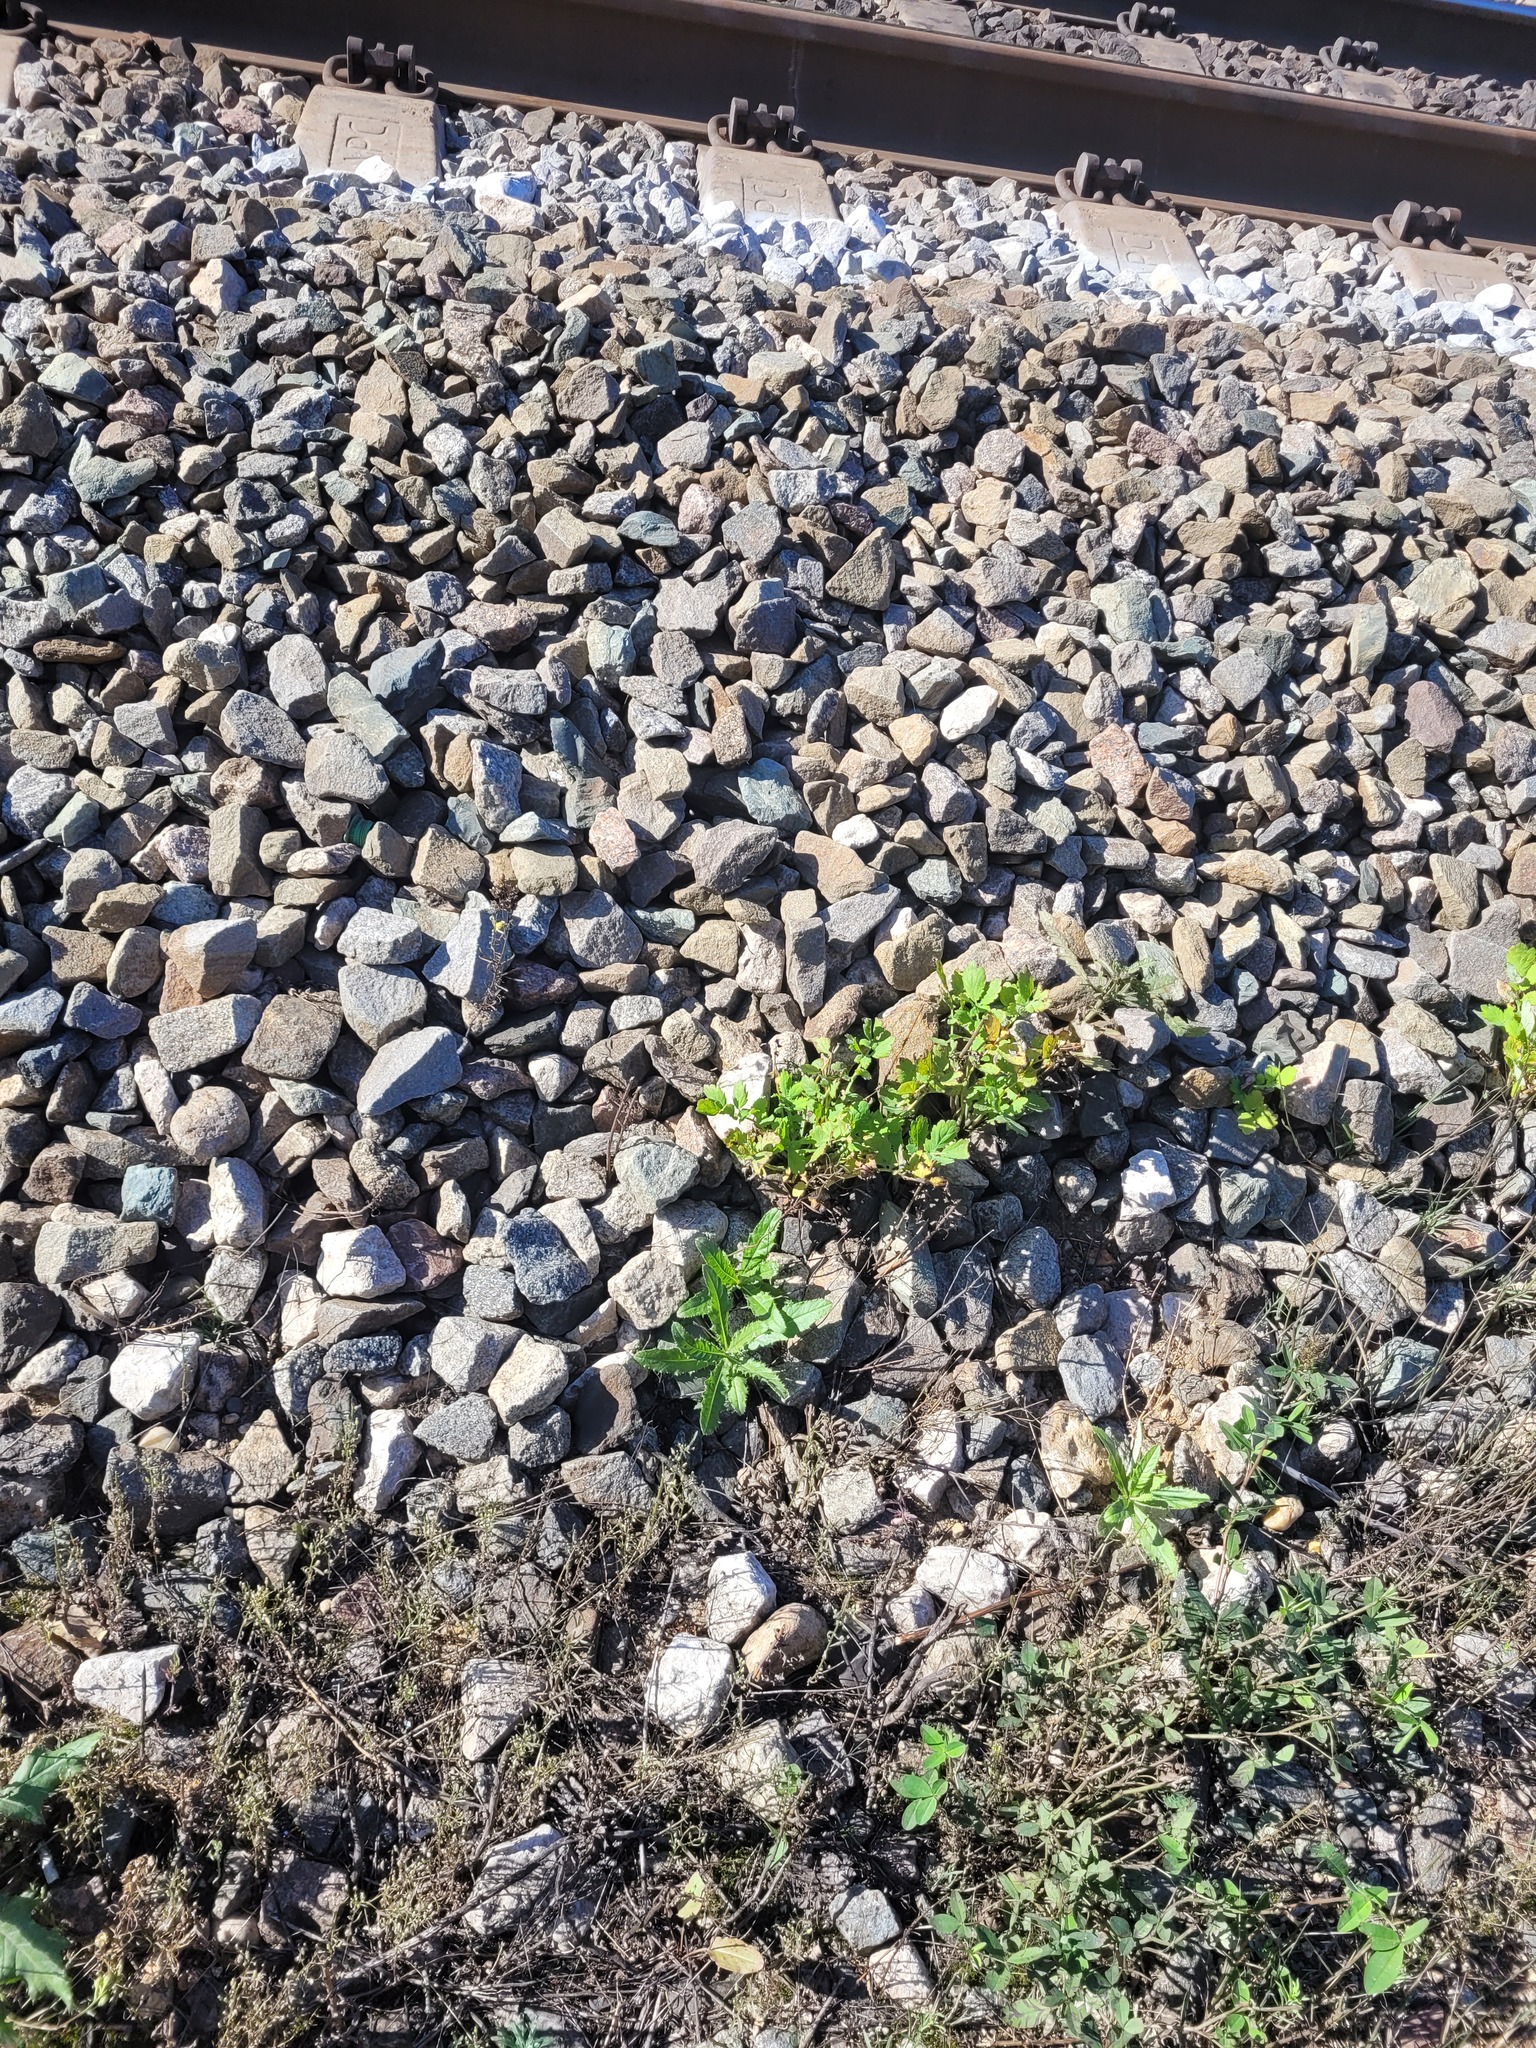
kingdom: Plantae
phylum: Tracheophyta
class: Magnoliopsida
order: Ranunculales
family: Papaveraceae
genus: Chelidonium
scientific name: Chelidonium majus
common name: Greater celandine
